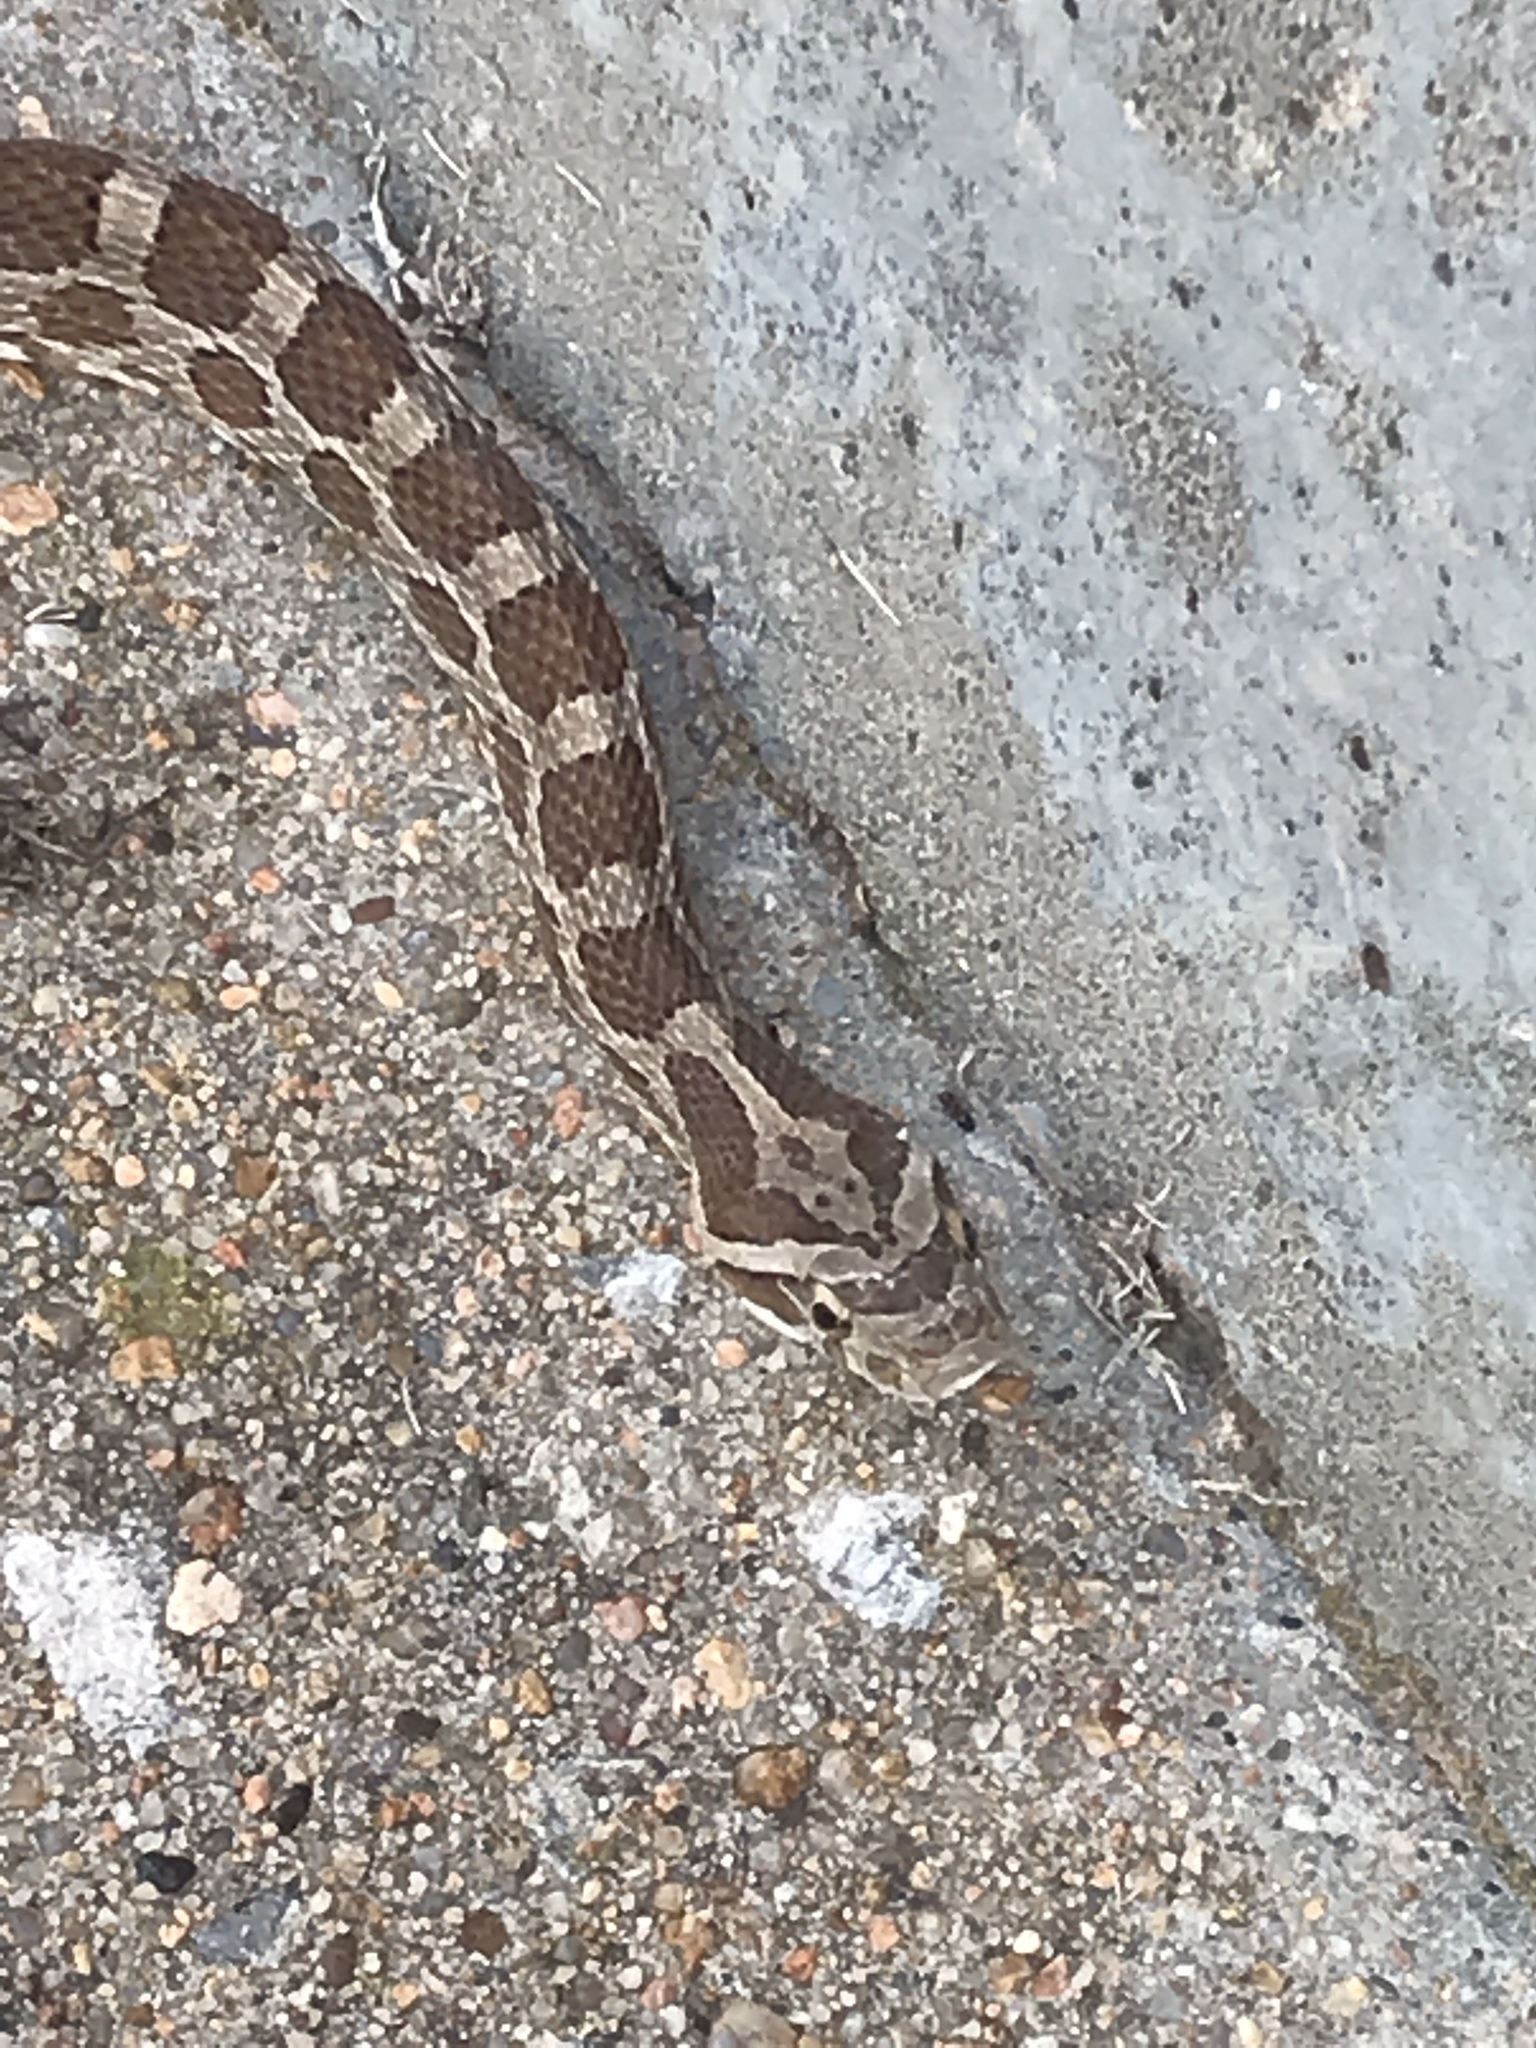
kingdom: Animalia
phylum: Chordata
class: Squamata
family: Colubridae
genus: Pantherophis
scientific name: Pantherophis emoryi
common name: Great plains rat snake
